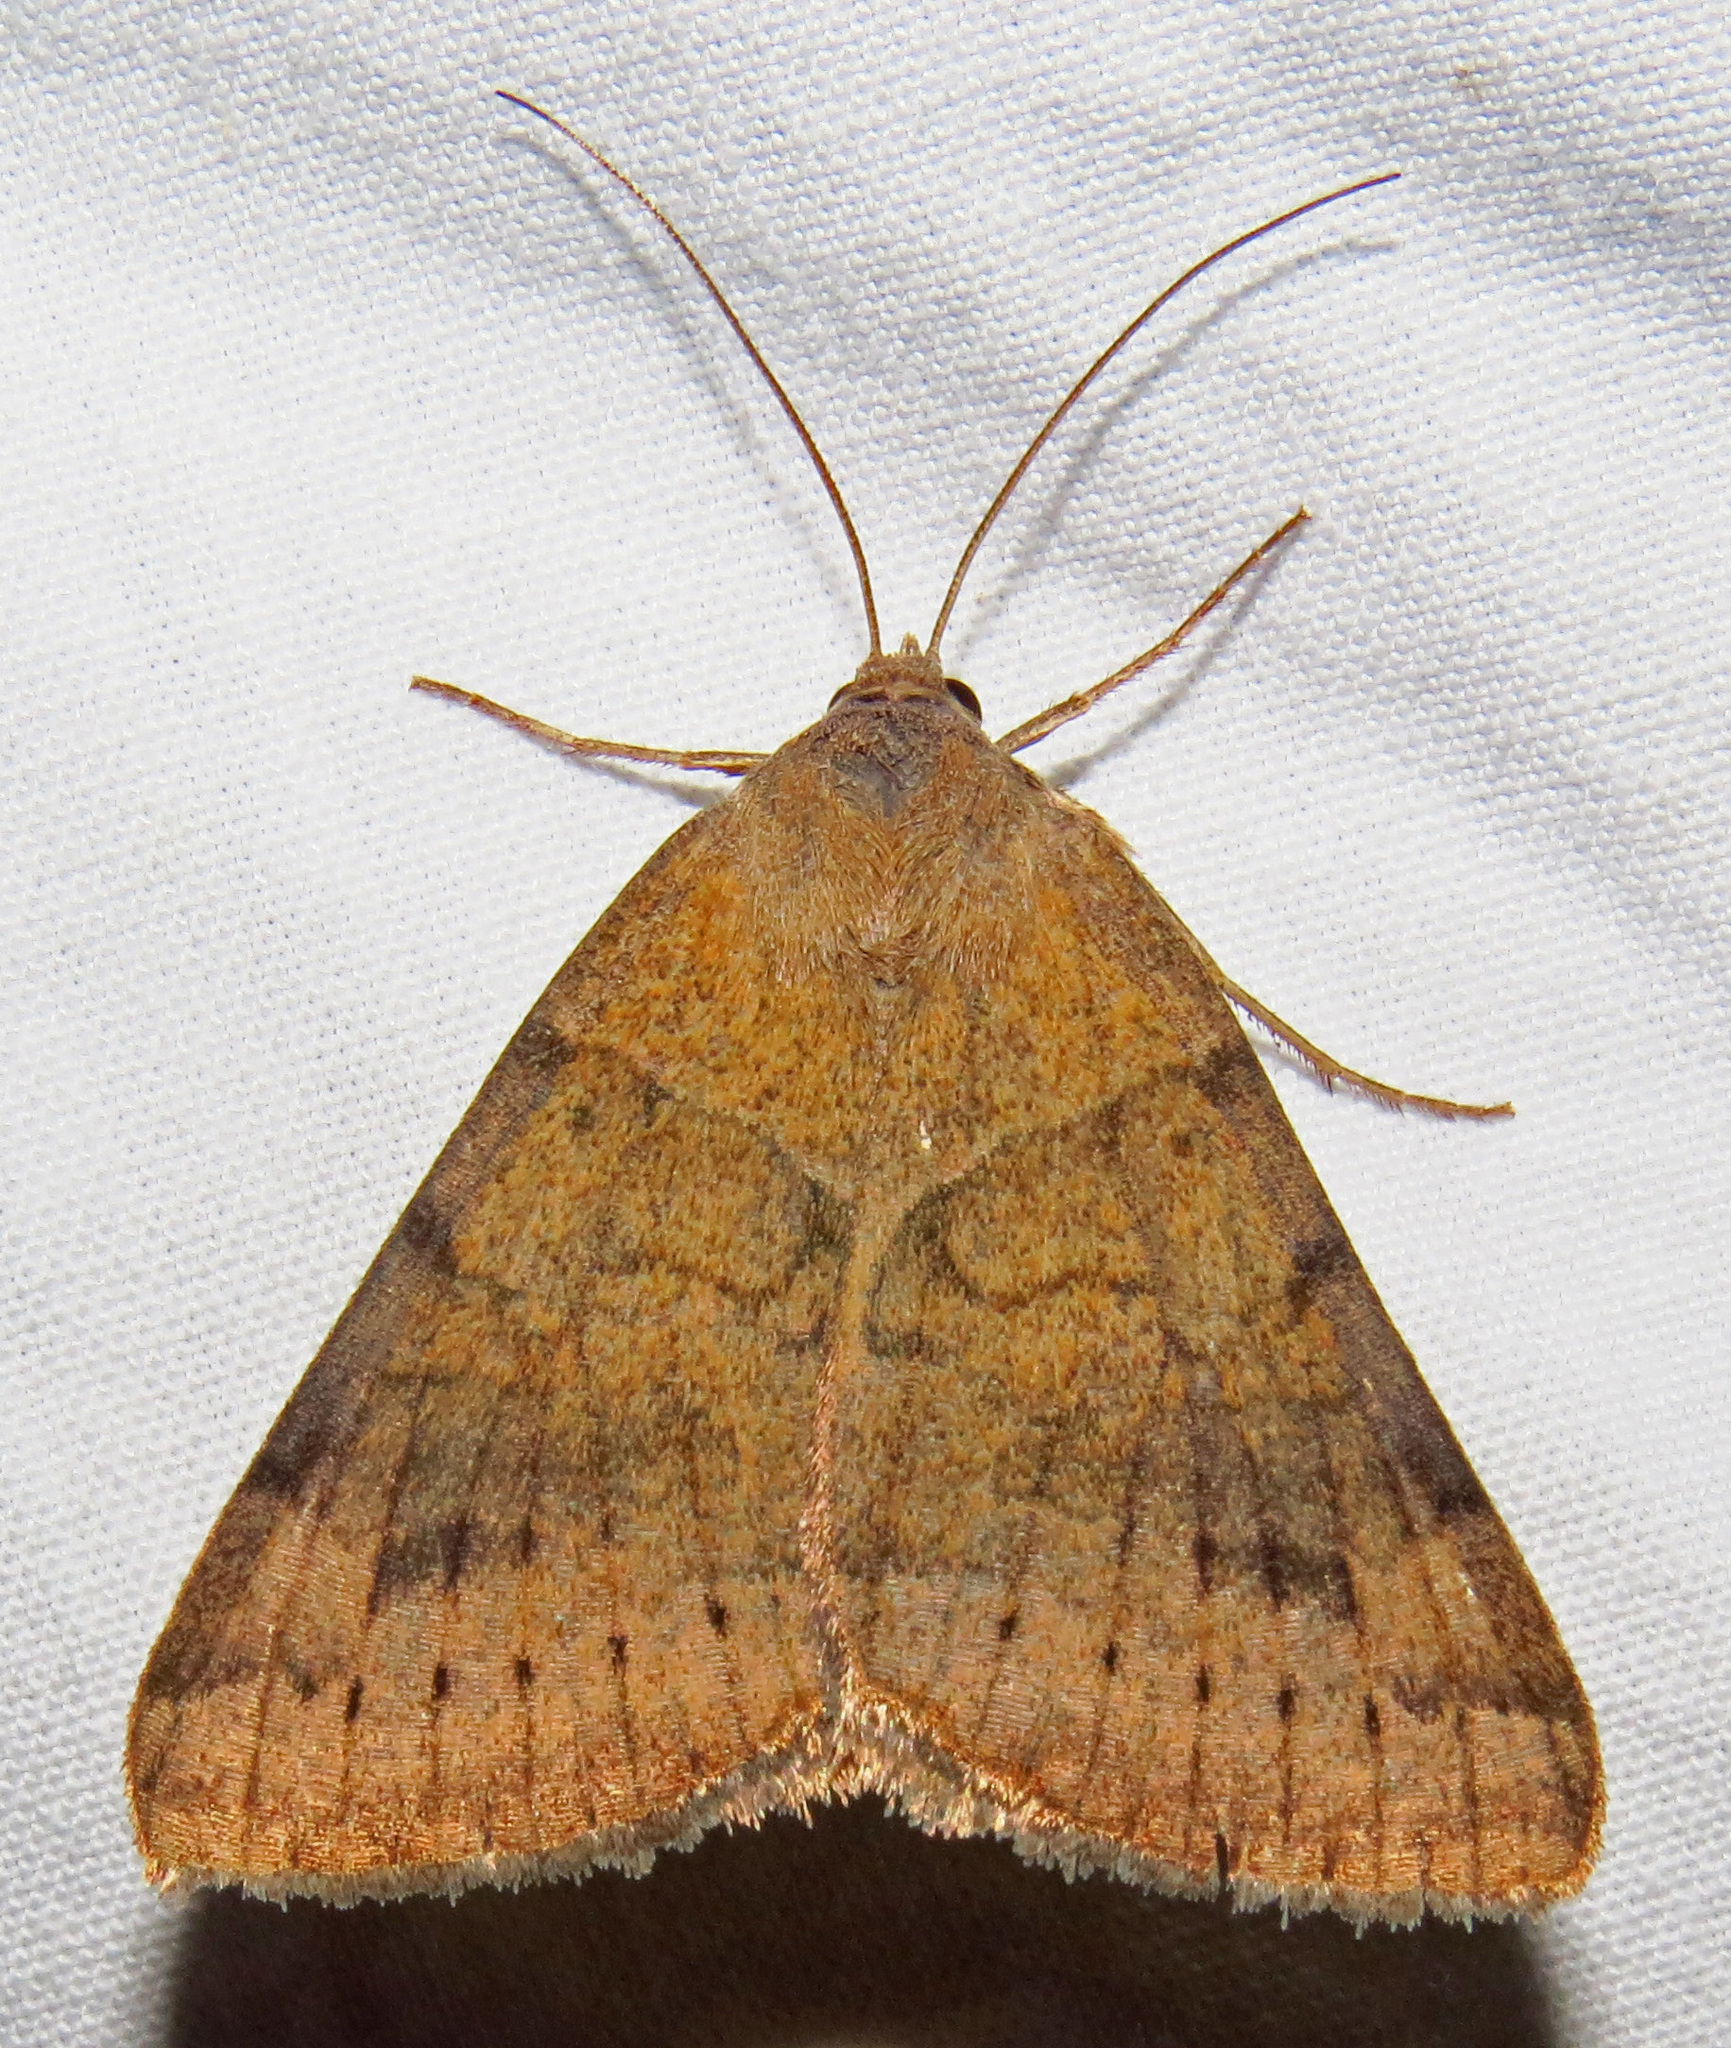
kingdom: Animalia
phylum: Arthropoda
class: Insecta
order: Lepidoptera
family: Erebidae
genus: Caenurgina
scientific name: Caenurgina erechtea
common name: Forage looper moth
